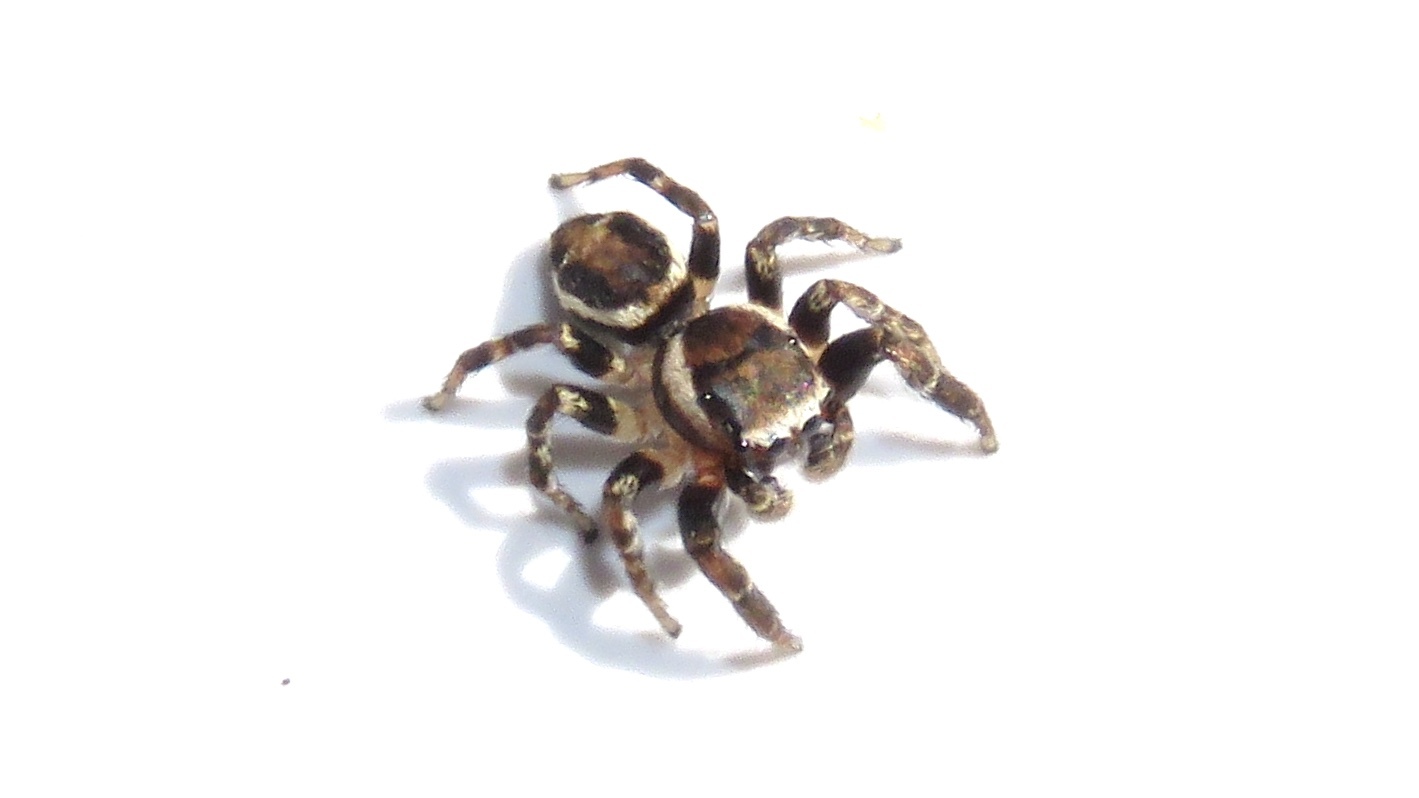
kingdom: Animalia
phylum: Arthropoda
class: Arachnida
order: Araneae
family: Salticidae
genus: Evarcha
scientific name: Evarcha hoyi
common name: Hoy's jumping spider
